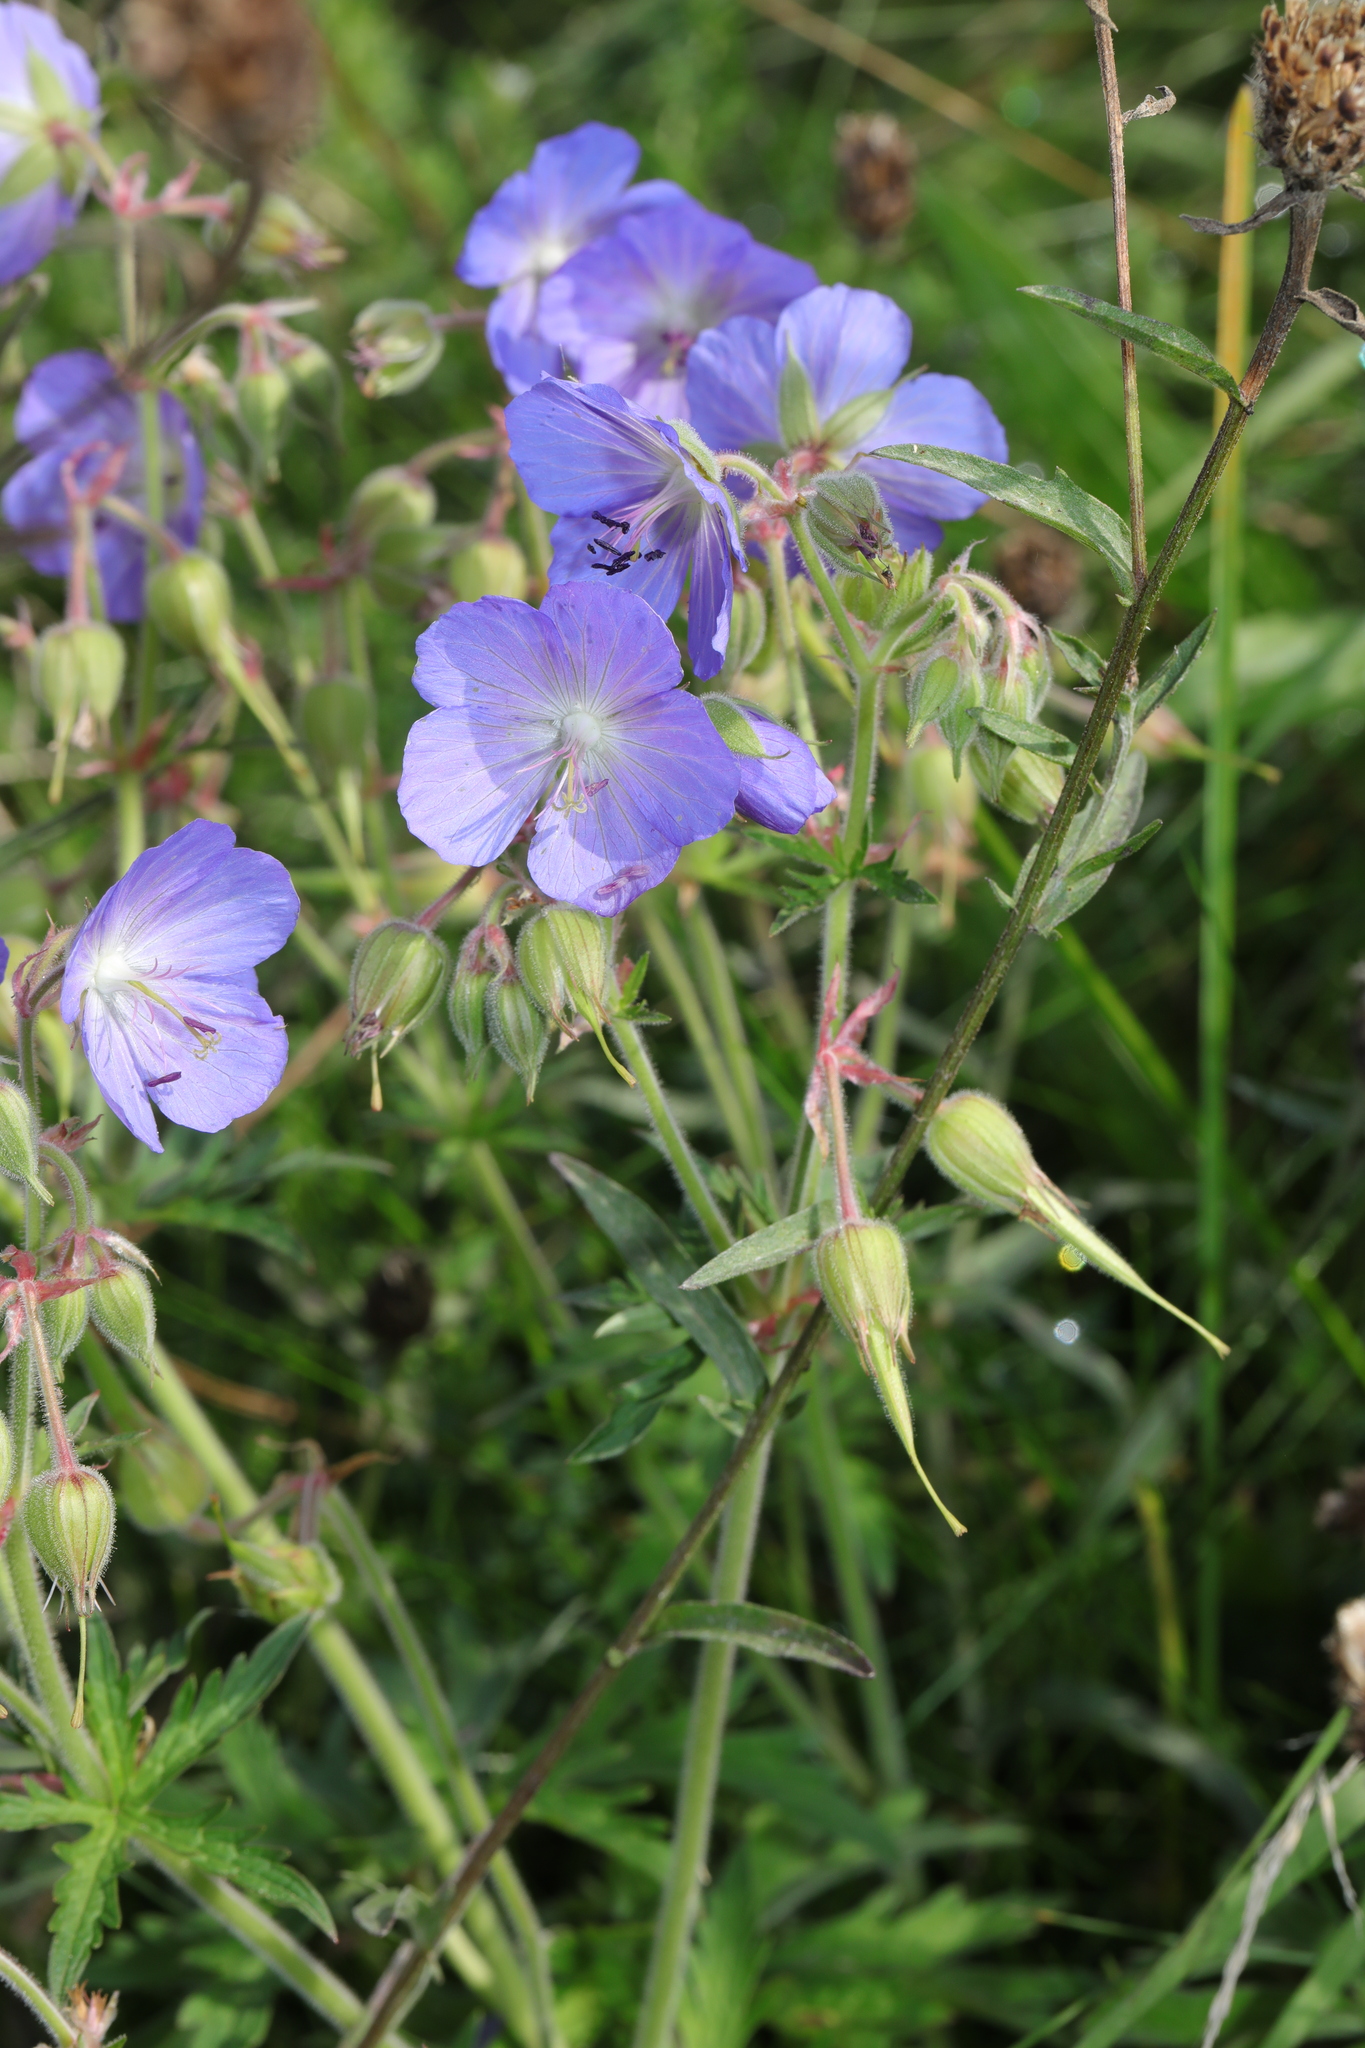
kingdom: Plantae
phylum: Tracheophyta
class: Magnoliopsida
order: Geraniales
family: Geraniaceae
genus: Geranium
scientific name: Geranium pratense
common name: Meadow crane's-bill
